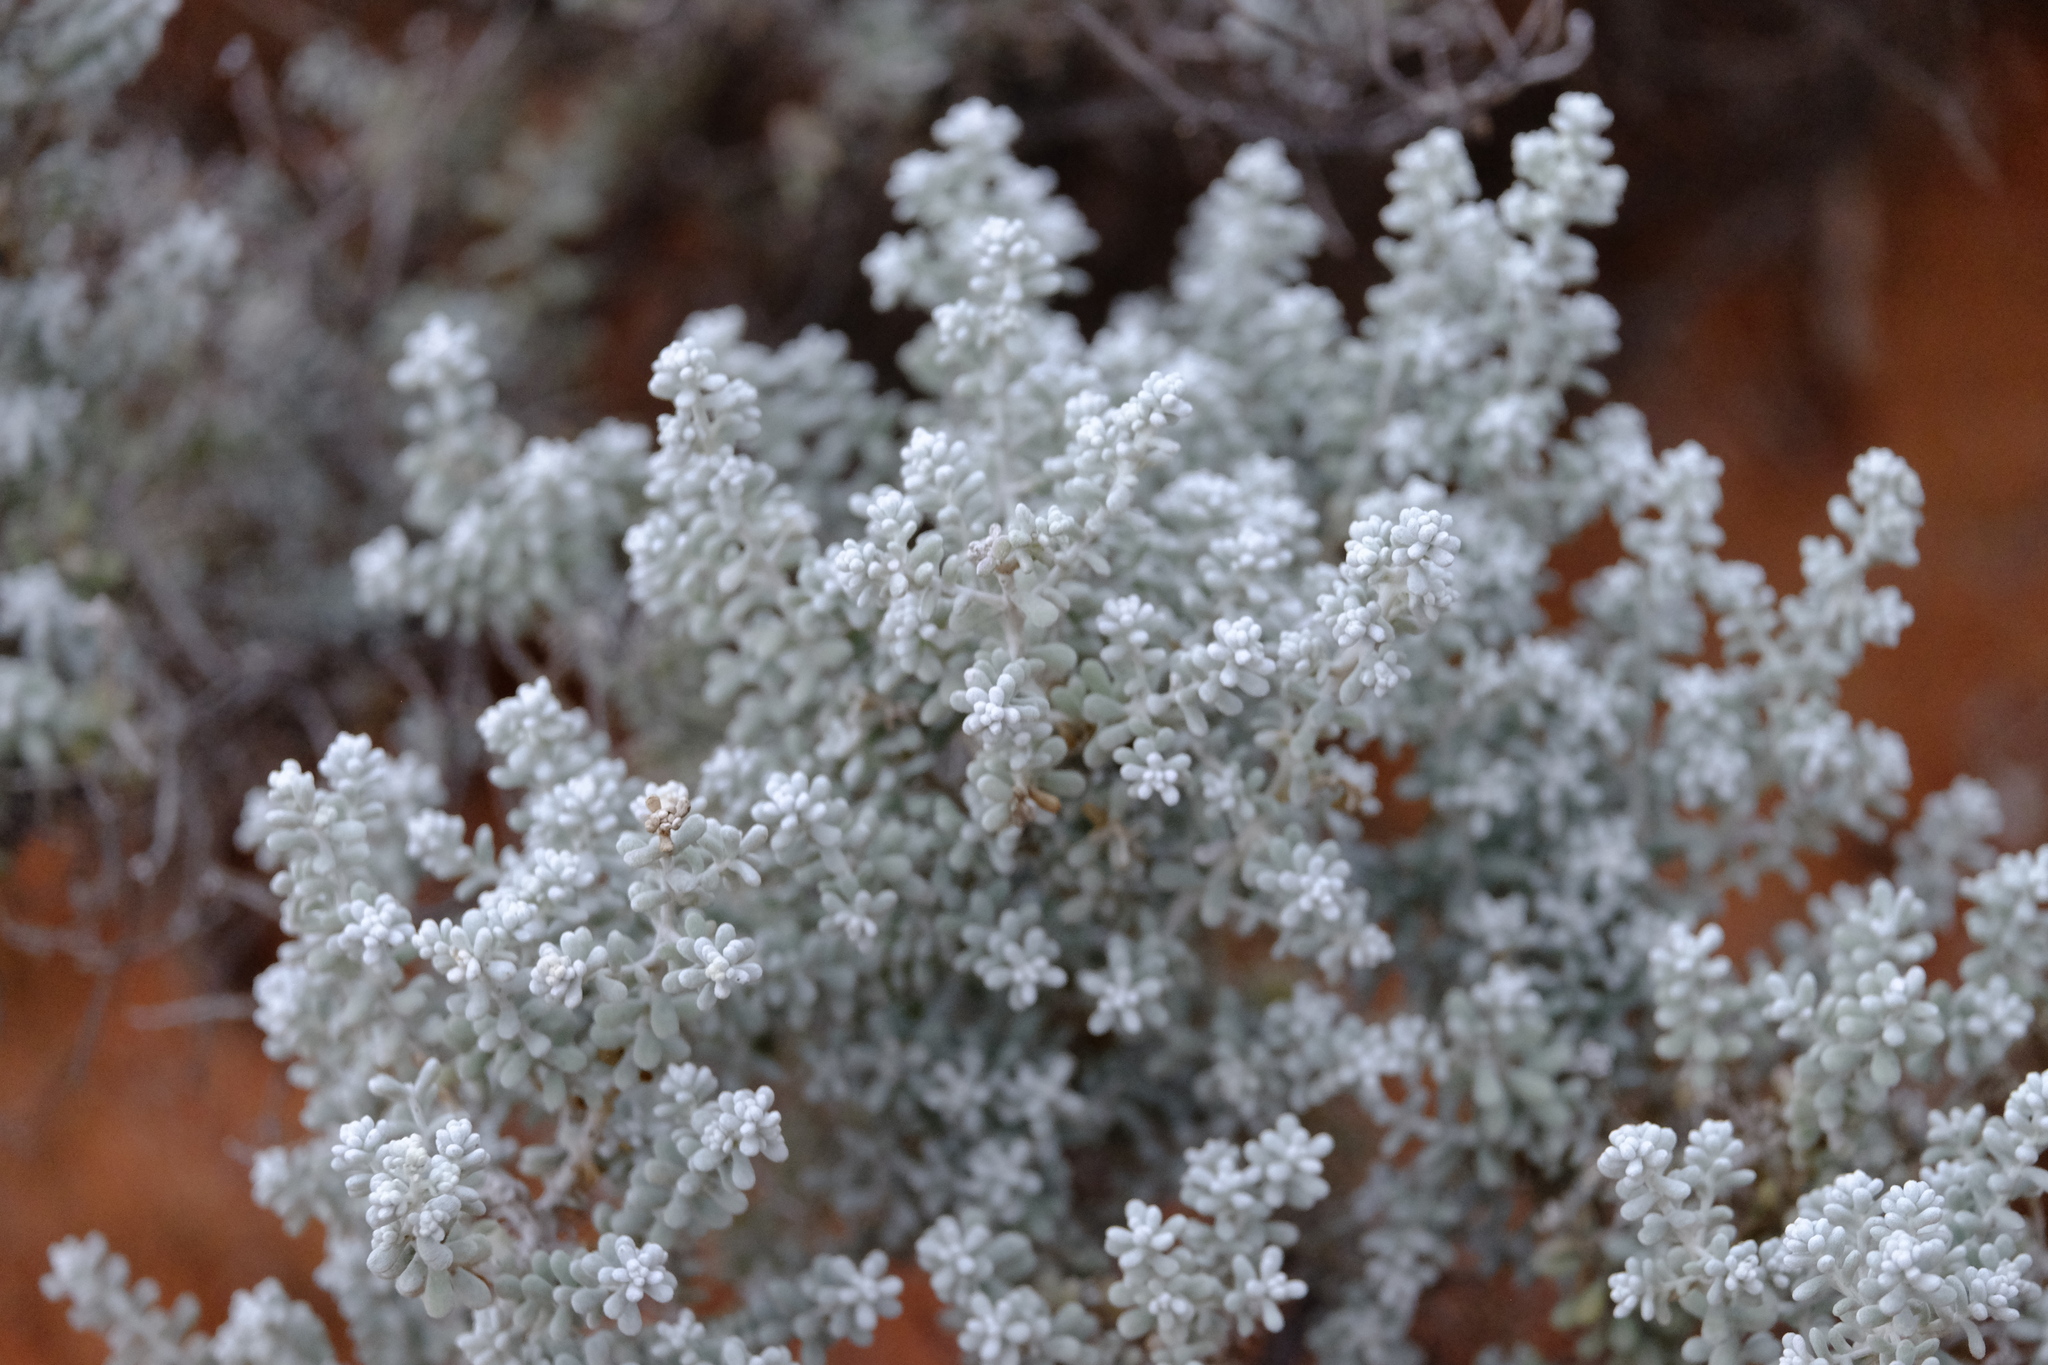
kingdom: Plantae
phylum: Tracheophyta
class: Magnoliopsida
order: Caryophyllales
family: Amaranthaceae
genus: Maireana
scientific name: Maireana sedifolia
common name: Hoary bluebush
